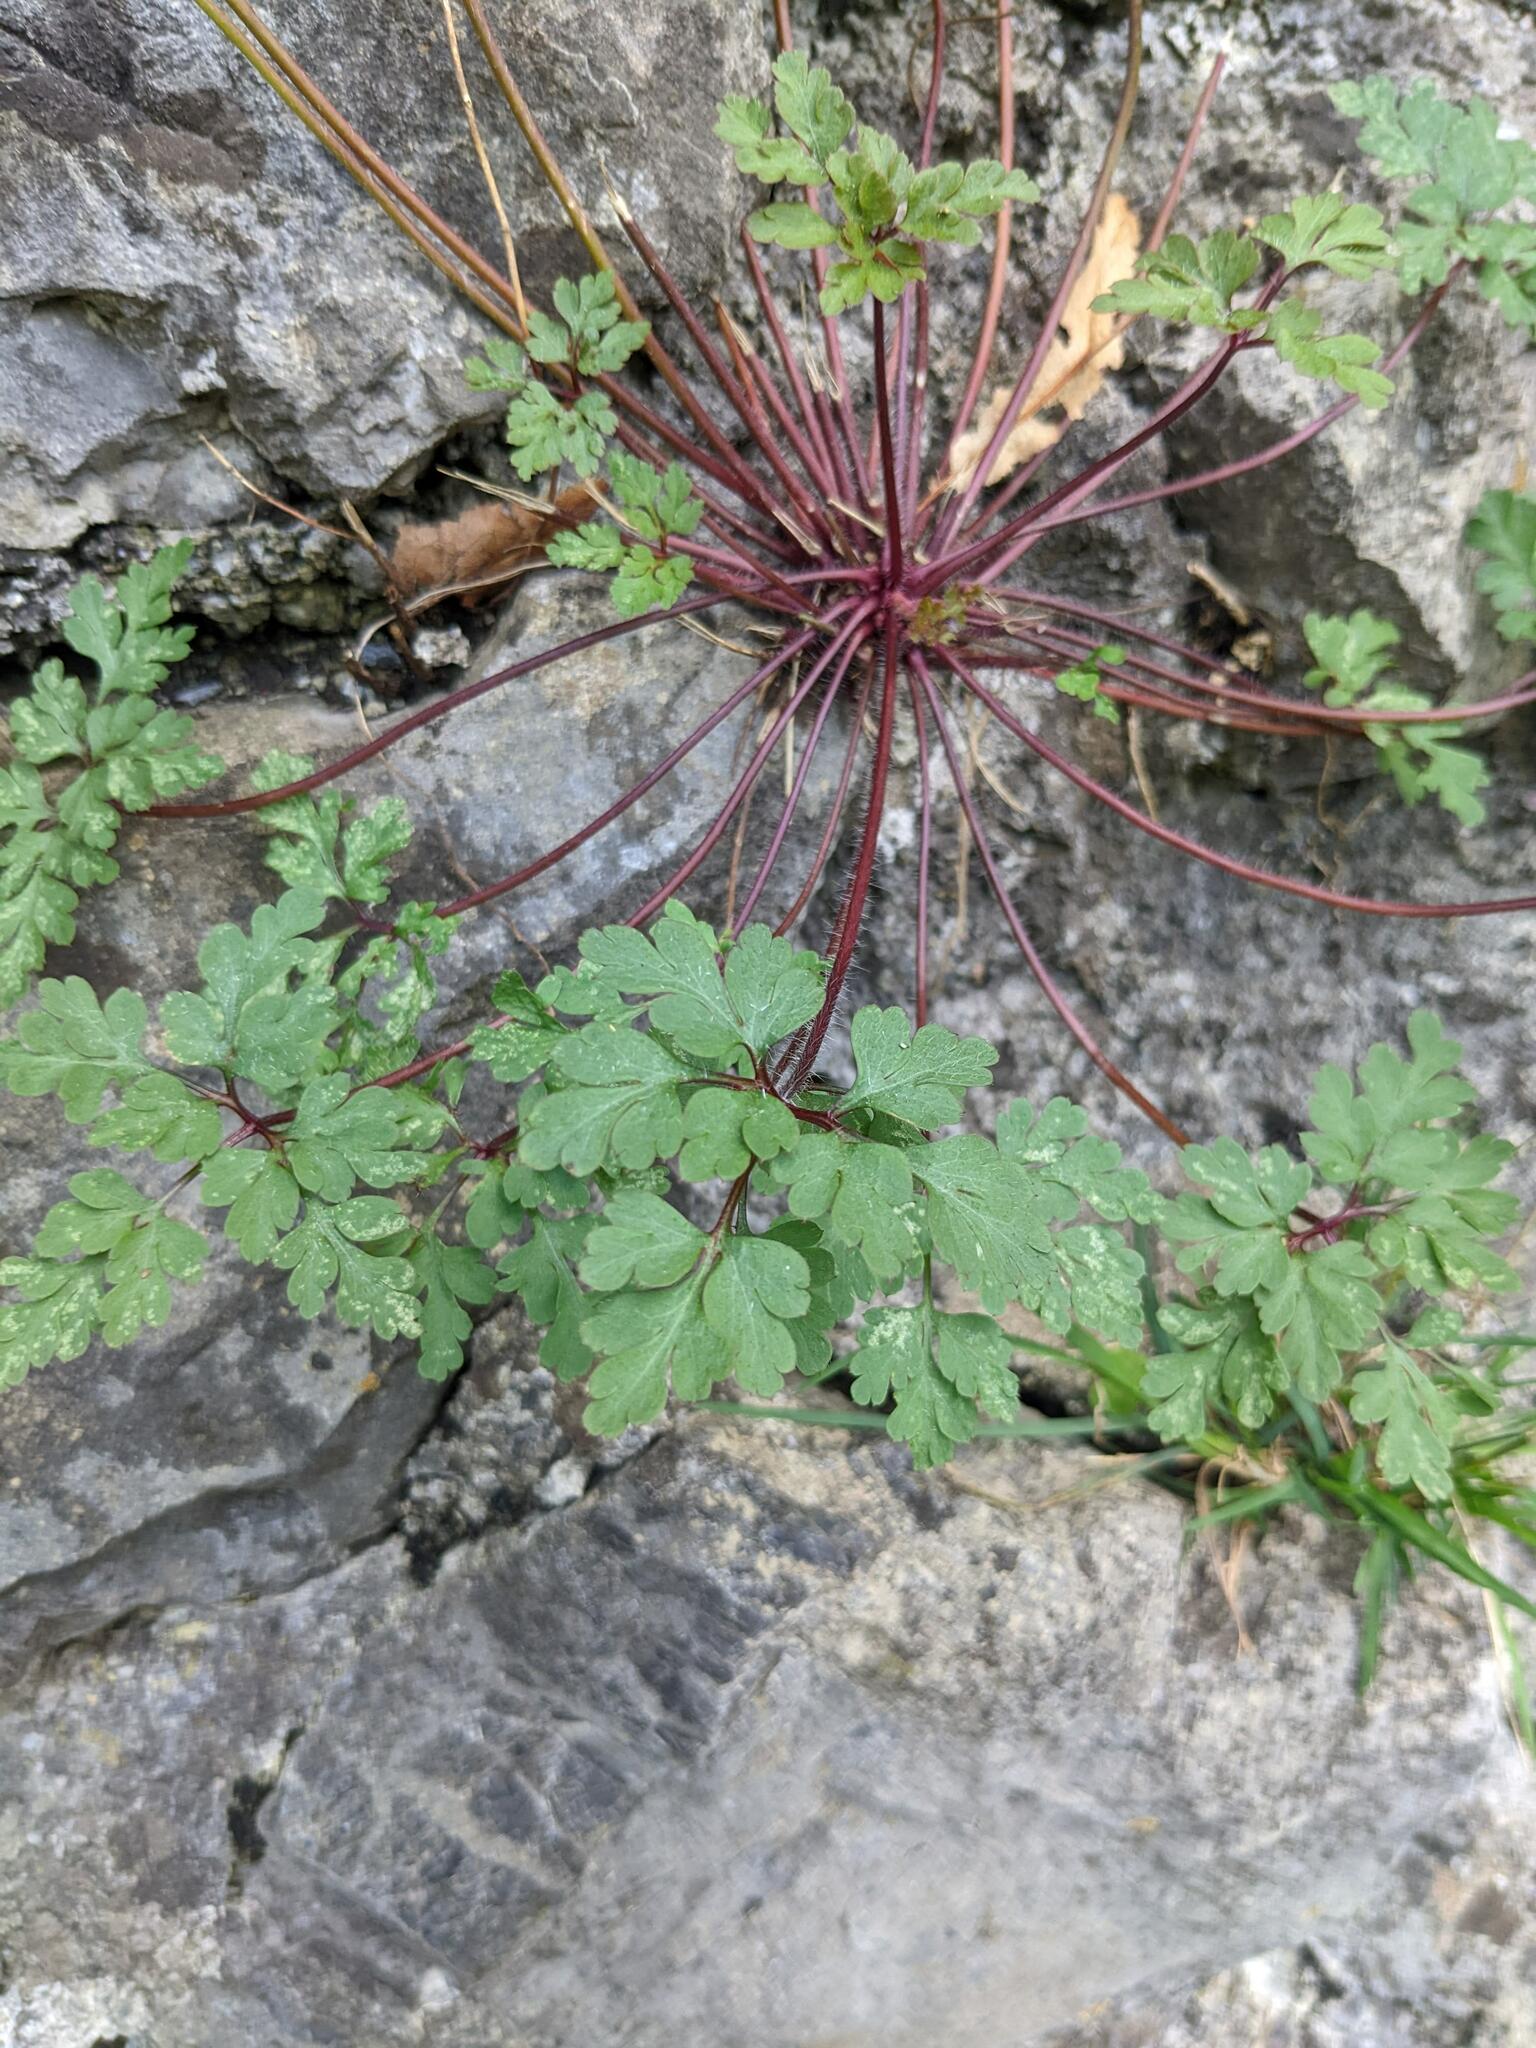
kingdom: Plantae
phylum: Tracheophyta
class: Magnoliopsida
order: Geraniales
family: Geraniaceae
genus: Geranium
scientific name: Geranium robertianum
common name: Herb-robert
